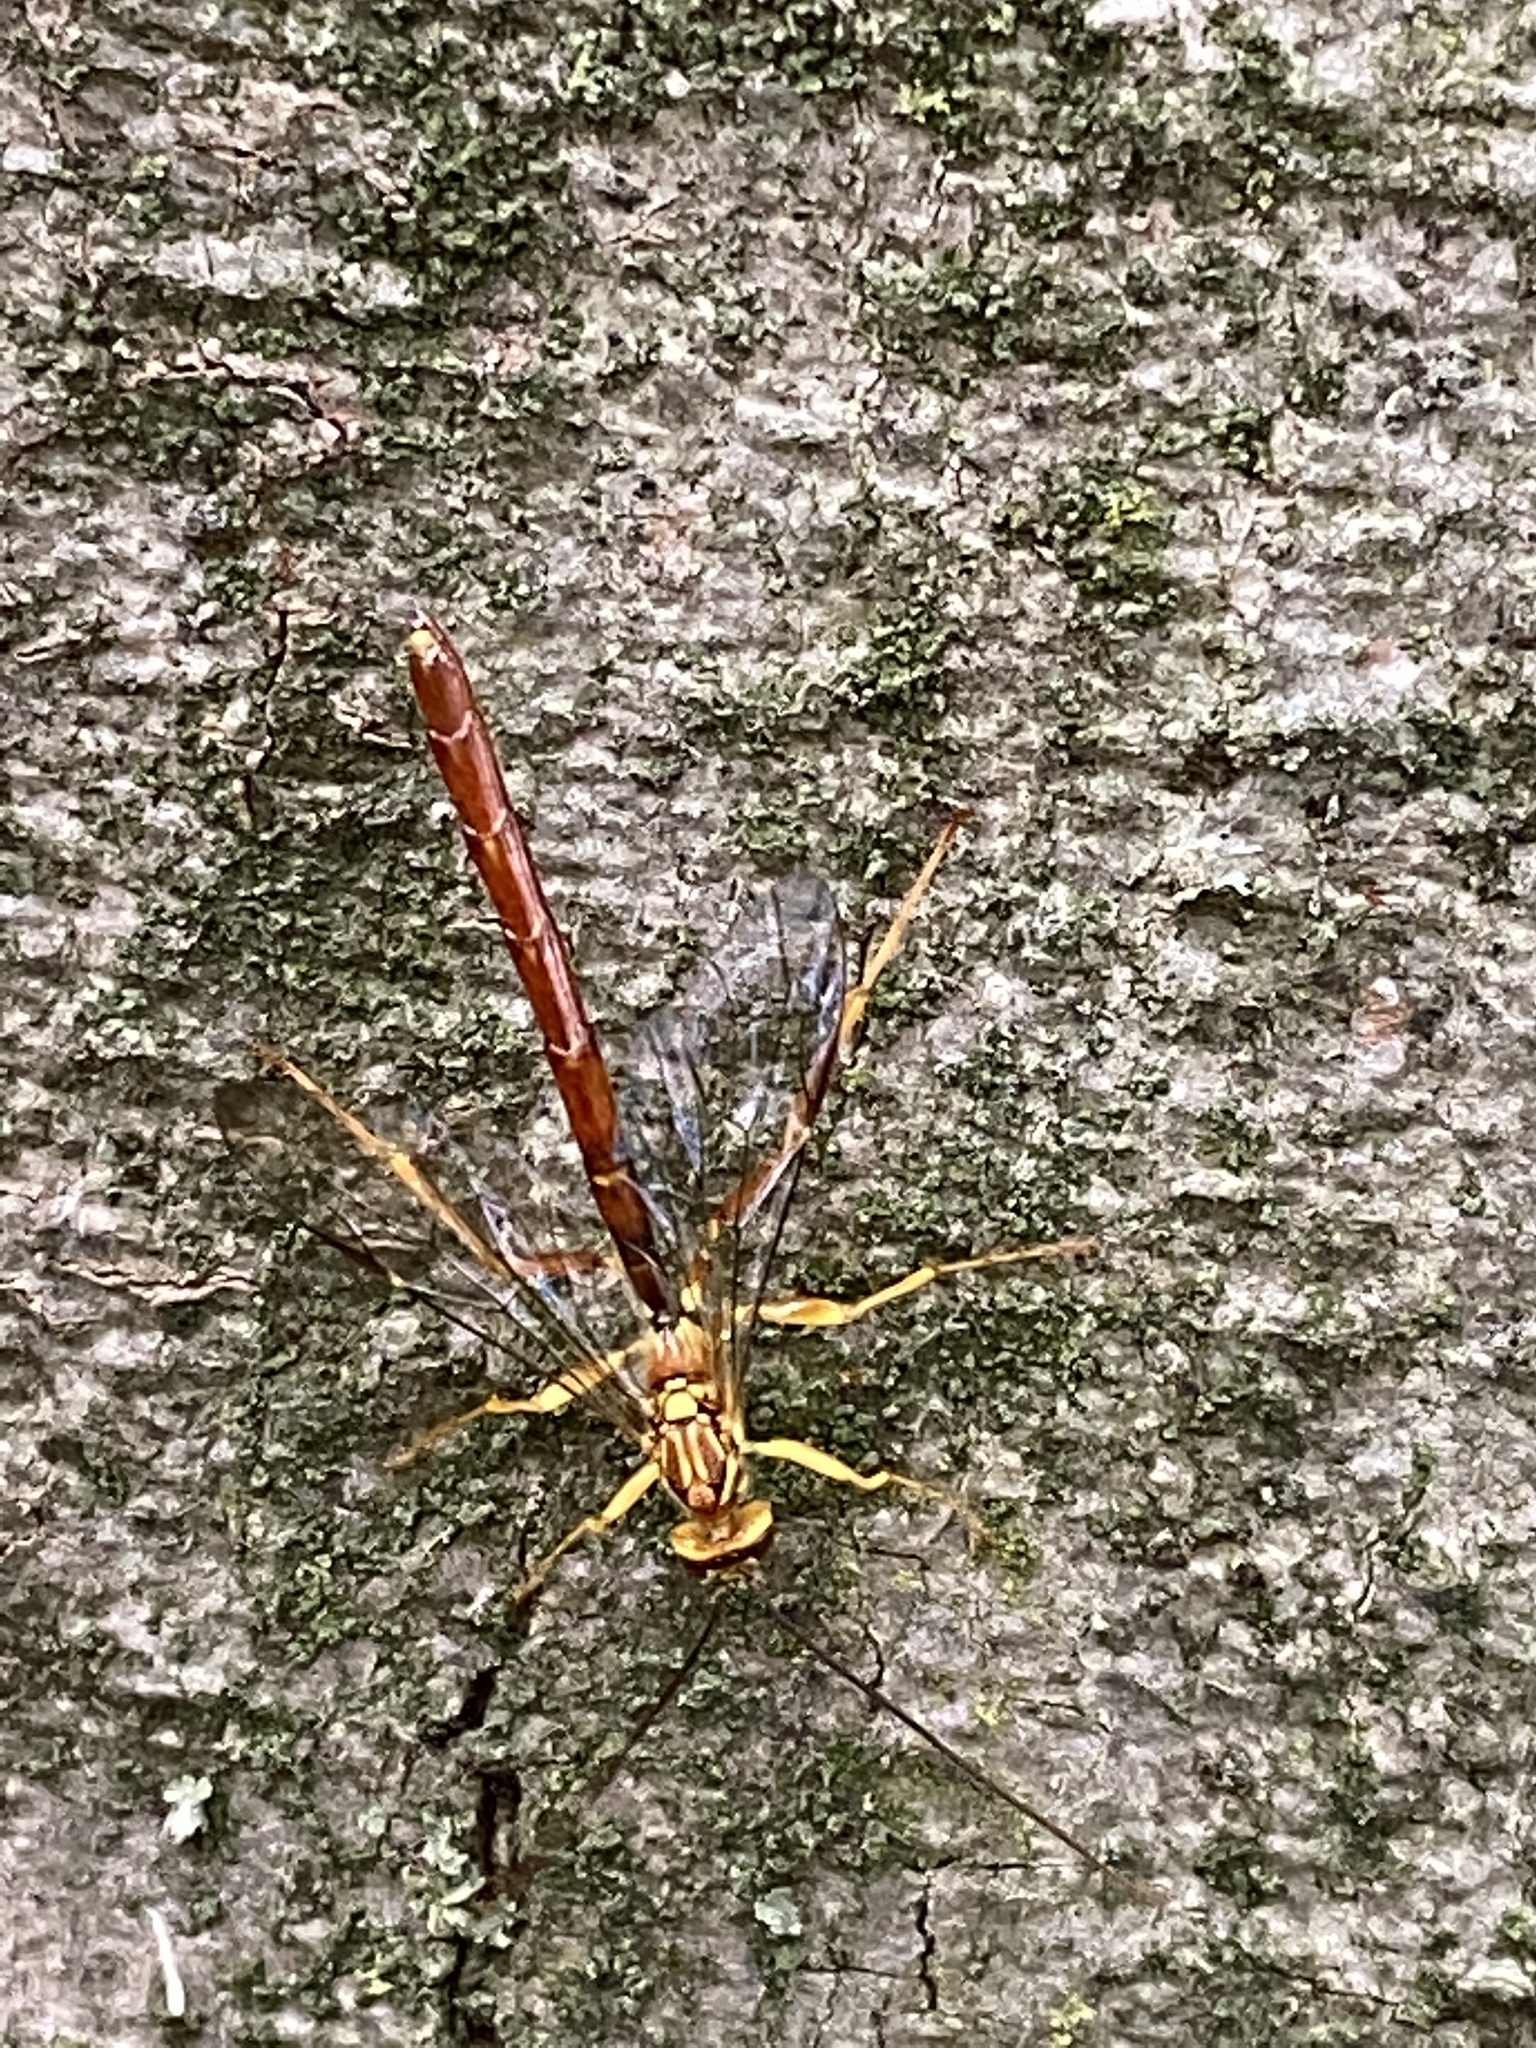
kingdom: Animalia
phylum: Arthropoda
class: Insecta
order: Hymenoptera
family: Ichneumonidae
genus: Megarhyssa
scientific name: Megarhyssa greenei
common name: Greene's giant ichneumonid wasp
